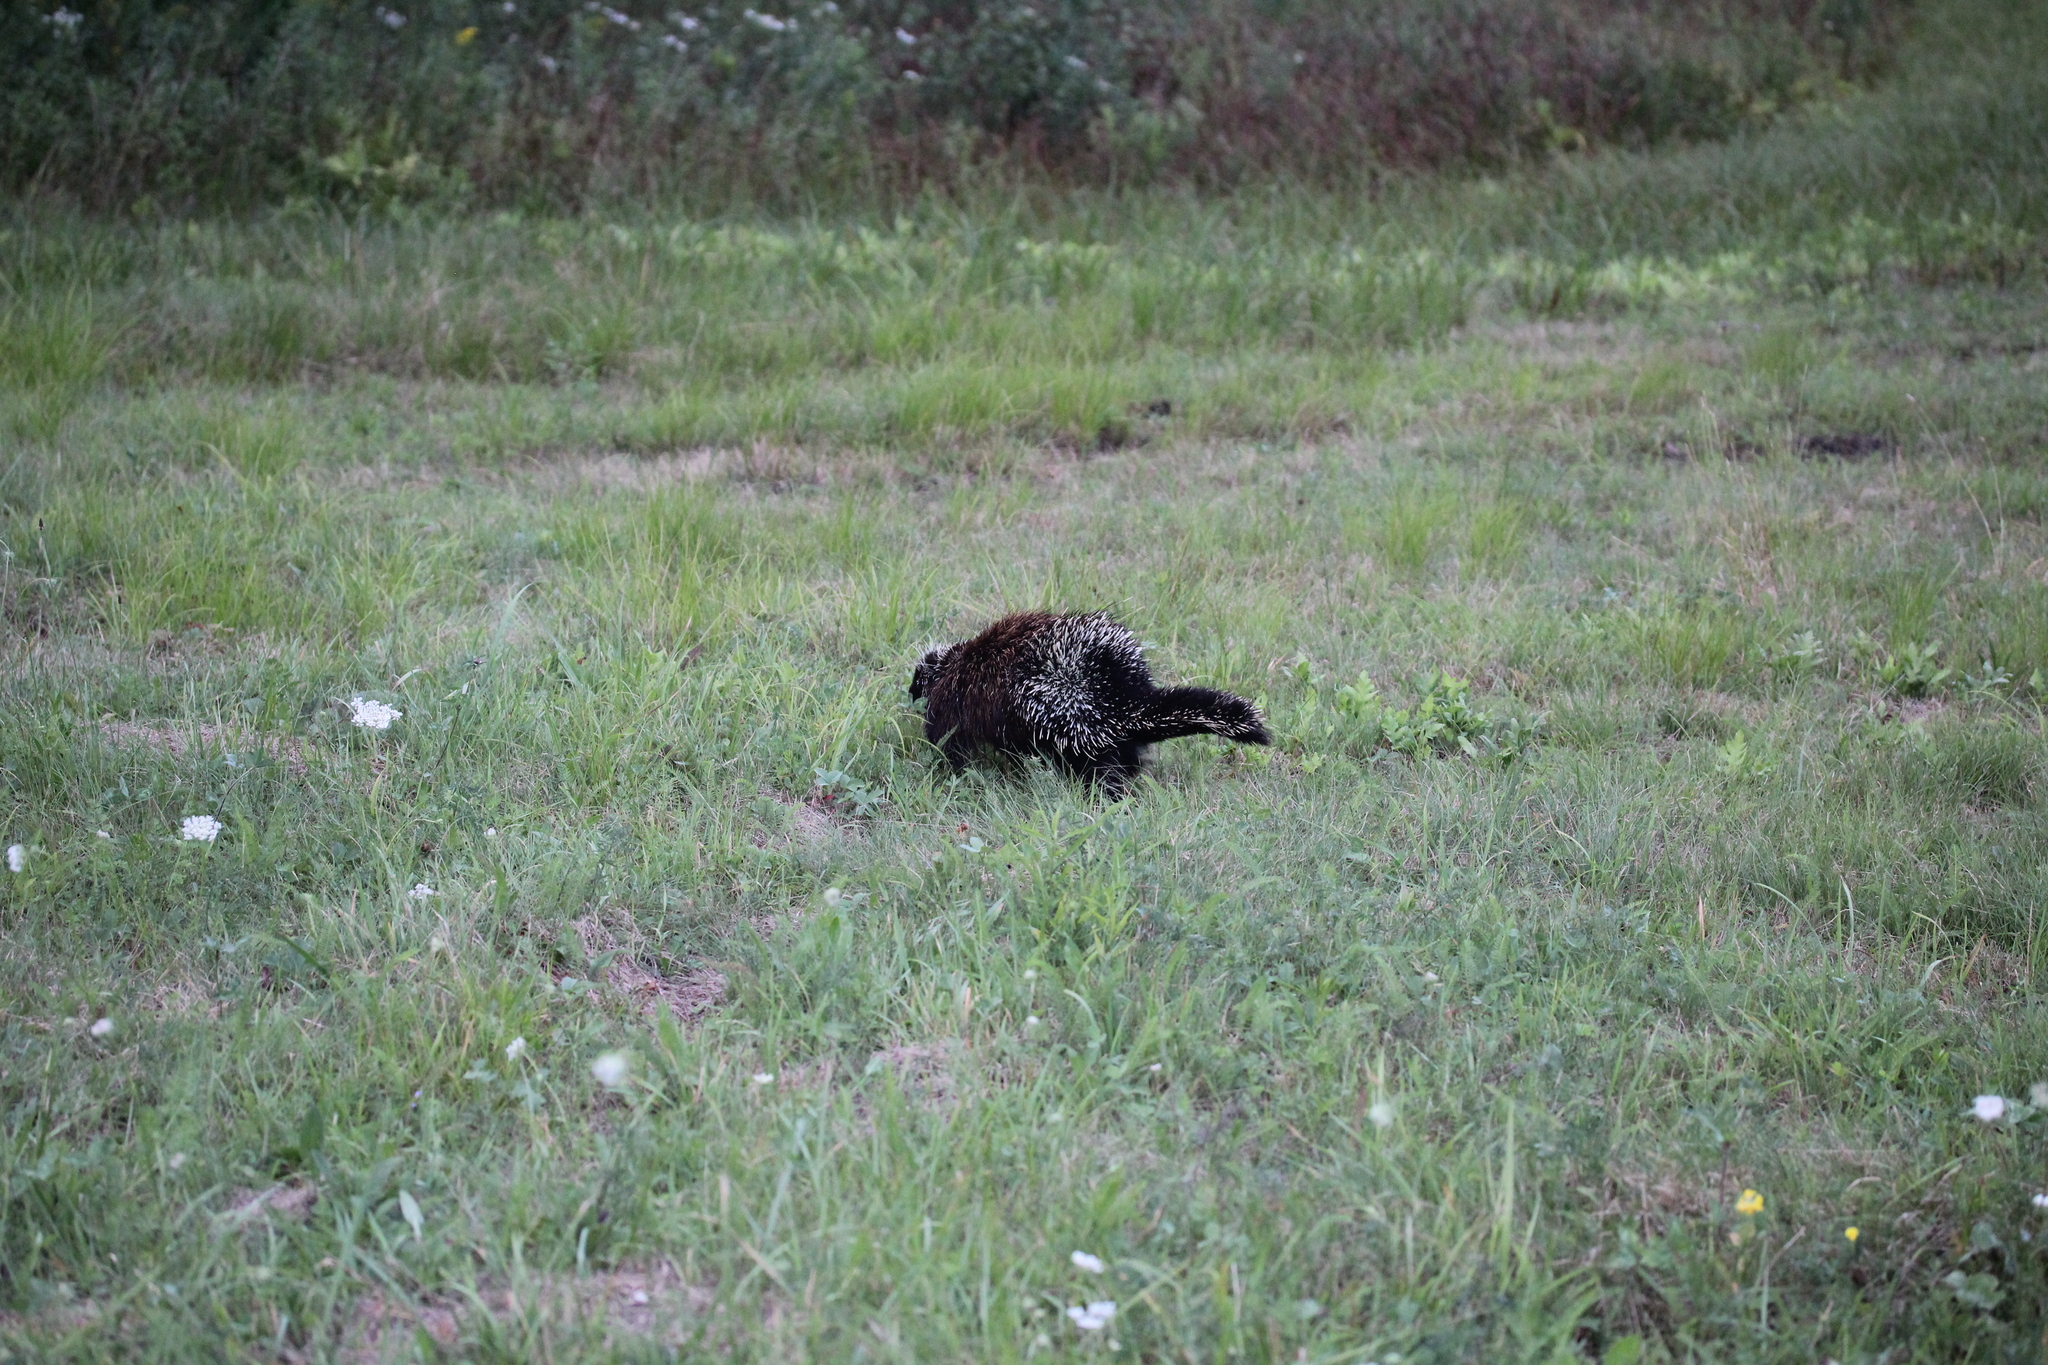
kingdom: Animalia
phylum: Chordata
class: Mammalia
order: Rodentia
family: Erethizontidae
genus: Erethizon
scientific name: Erethizon dorsatus
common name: North american porcupine
